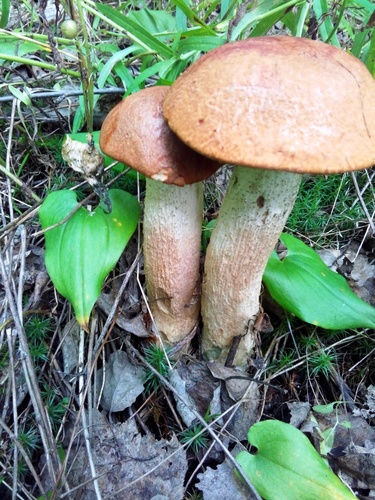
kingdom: Fungi
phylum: Basidiomycota
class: Agaricomycetes
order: Boletales
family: Boletaceae
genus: Leccinum
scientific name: Leccinum aurantiacum
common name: Orange bolete
